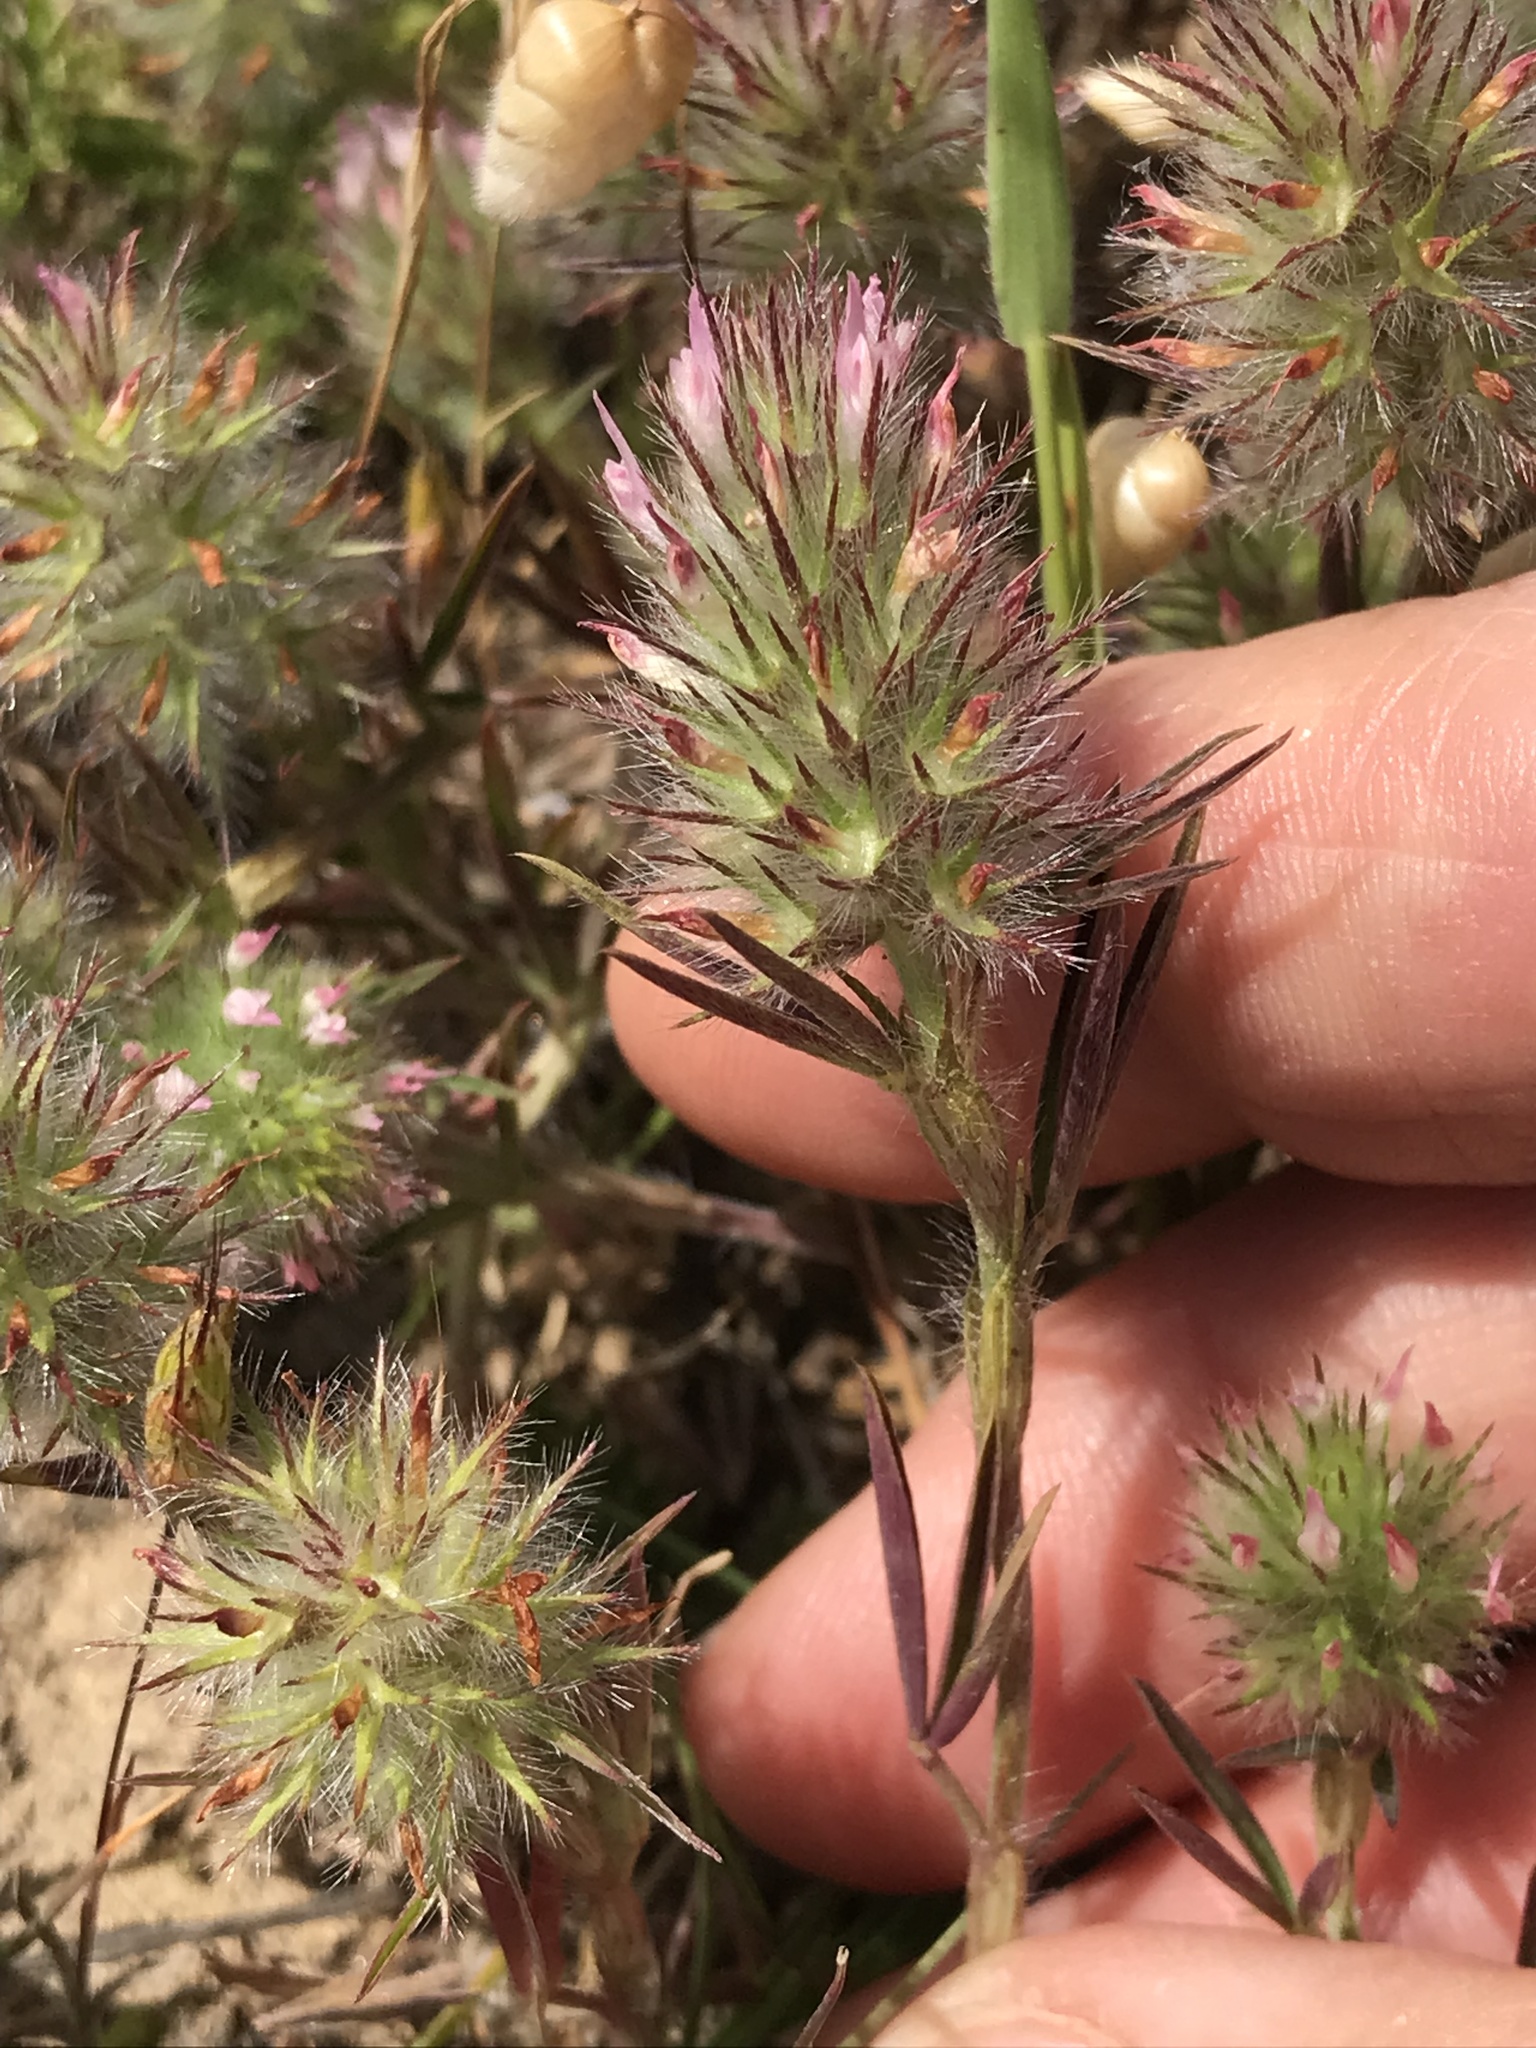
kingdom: Plantae
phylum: Tracheophyta
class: Magnoliopsida
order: Fabales
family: Fabaceae
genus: Trifolium
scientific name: Trifolium angustifolium
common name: Narrow clover
